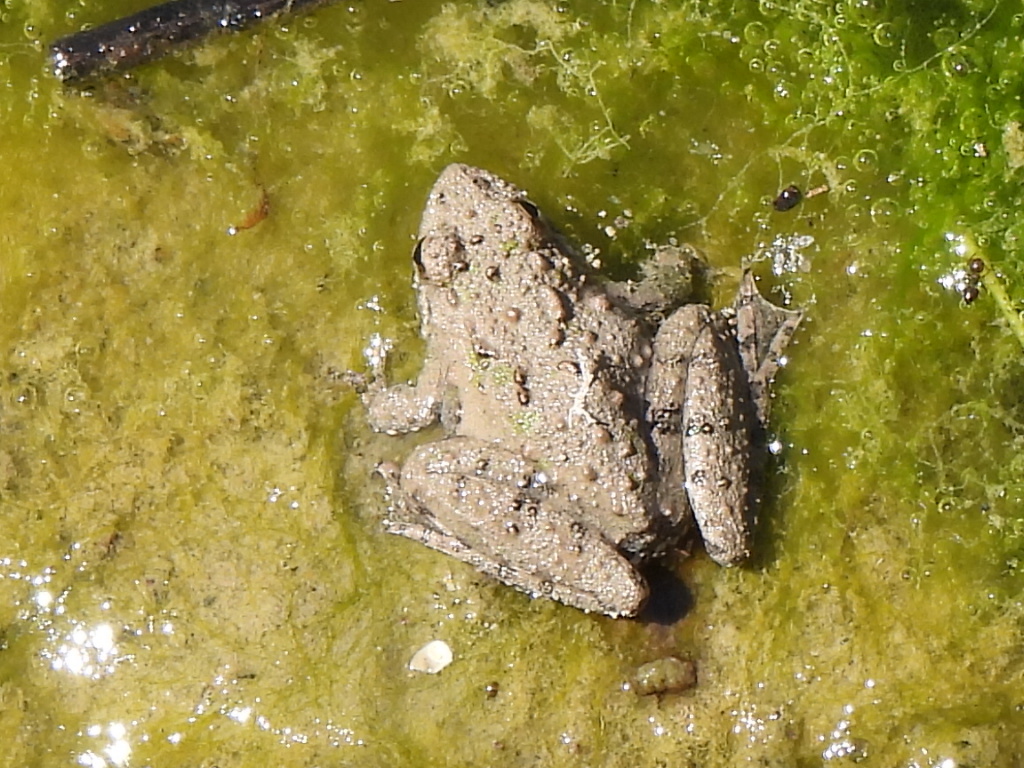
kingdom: Animalia
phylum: Chordata
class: Amphibia
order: Anura
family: Hylidae
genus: Acris
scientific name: Acris blanchardi
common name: Blanchard's cricket frog
